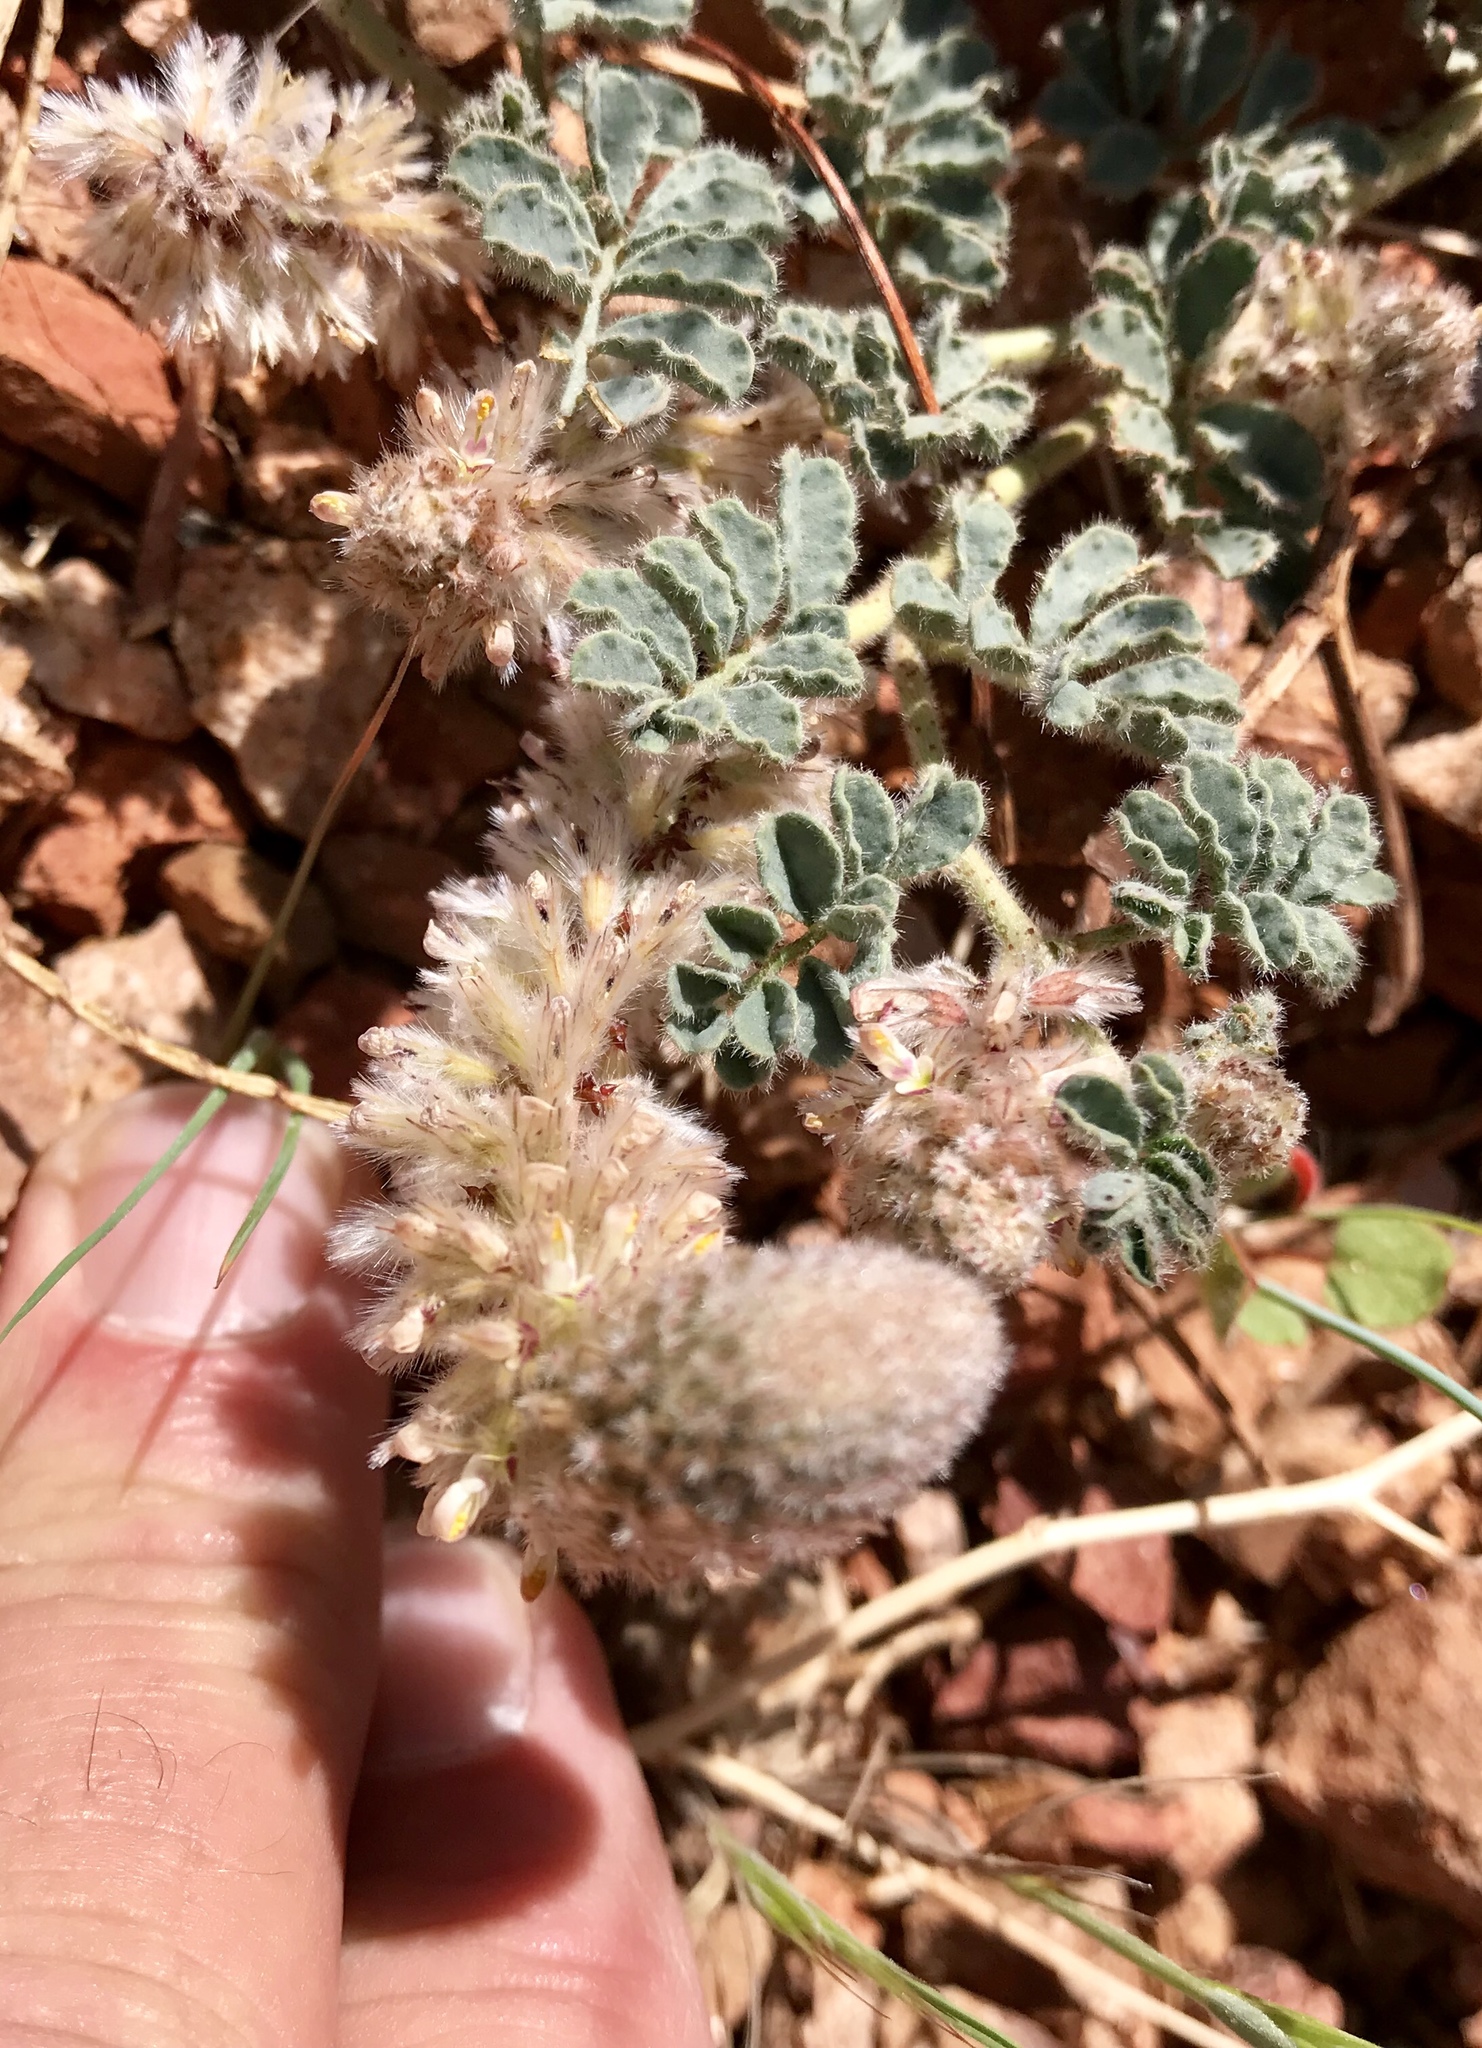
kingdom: Plantae
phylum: Tracheophyta
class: Magnoliopsida
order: Fabales
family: Fabaceae
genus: Dalea
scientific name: Dalea mollissima
